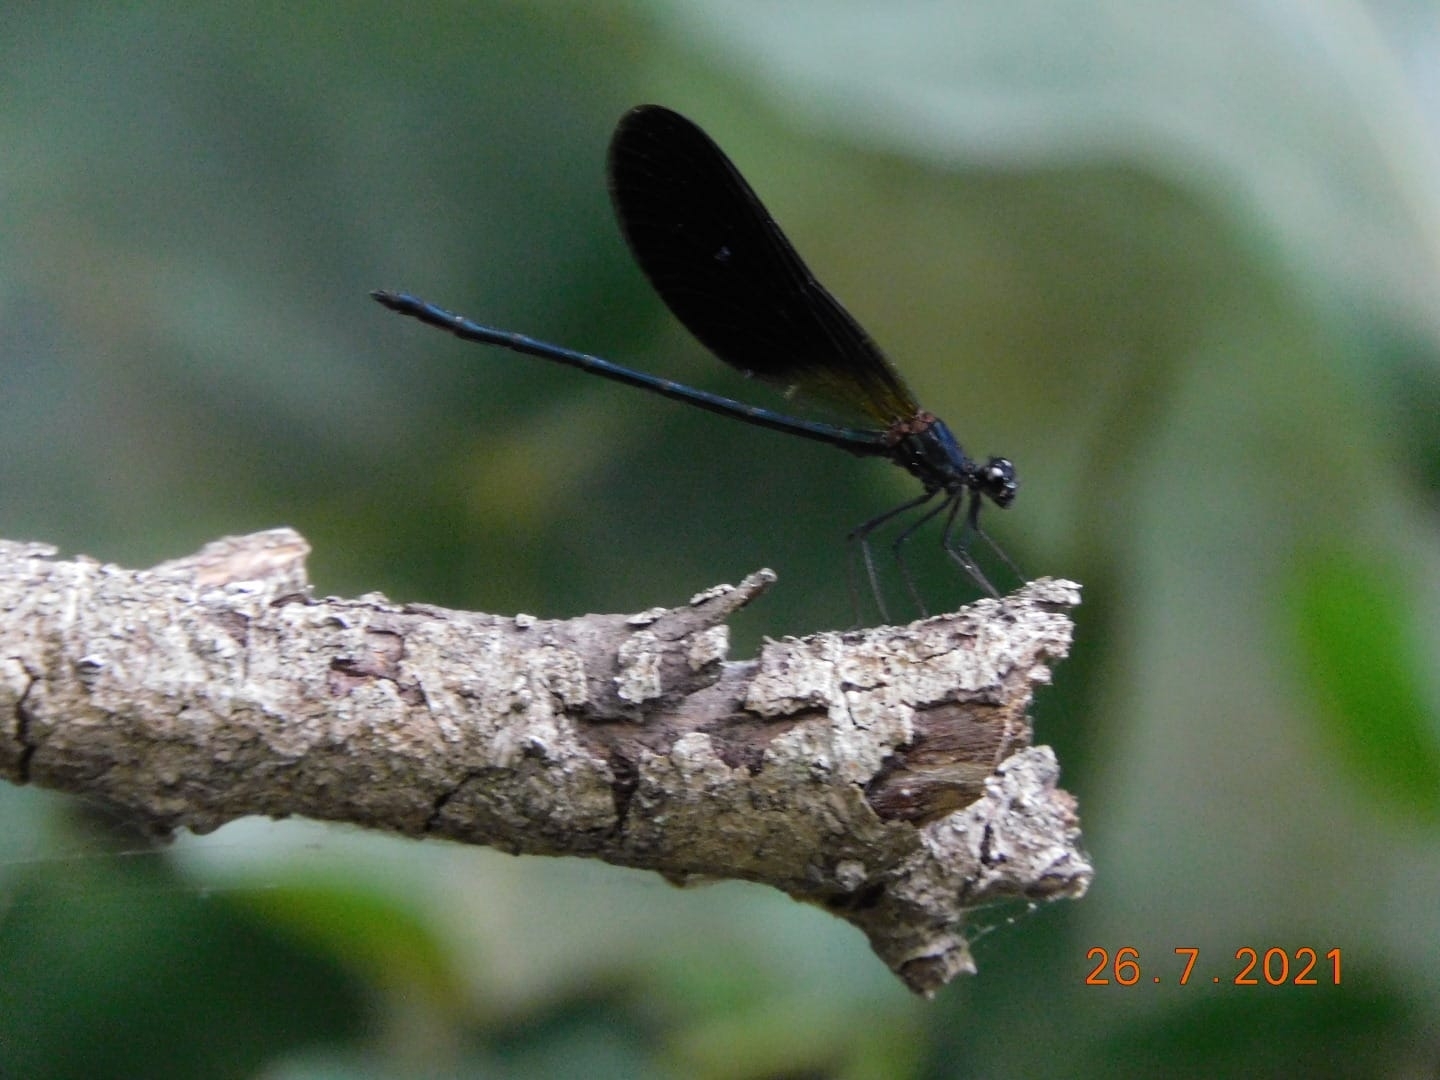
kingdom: Animalia
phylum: Arthropoda
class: Insecta
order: Odonata
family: Calopterygidae
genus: Calopteryx
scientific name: Calopteryx haemorrhoidalis
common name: Copper demoiselle
